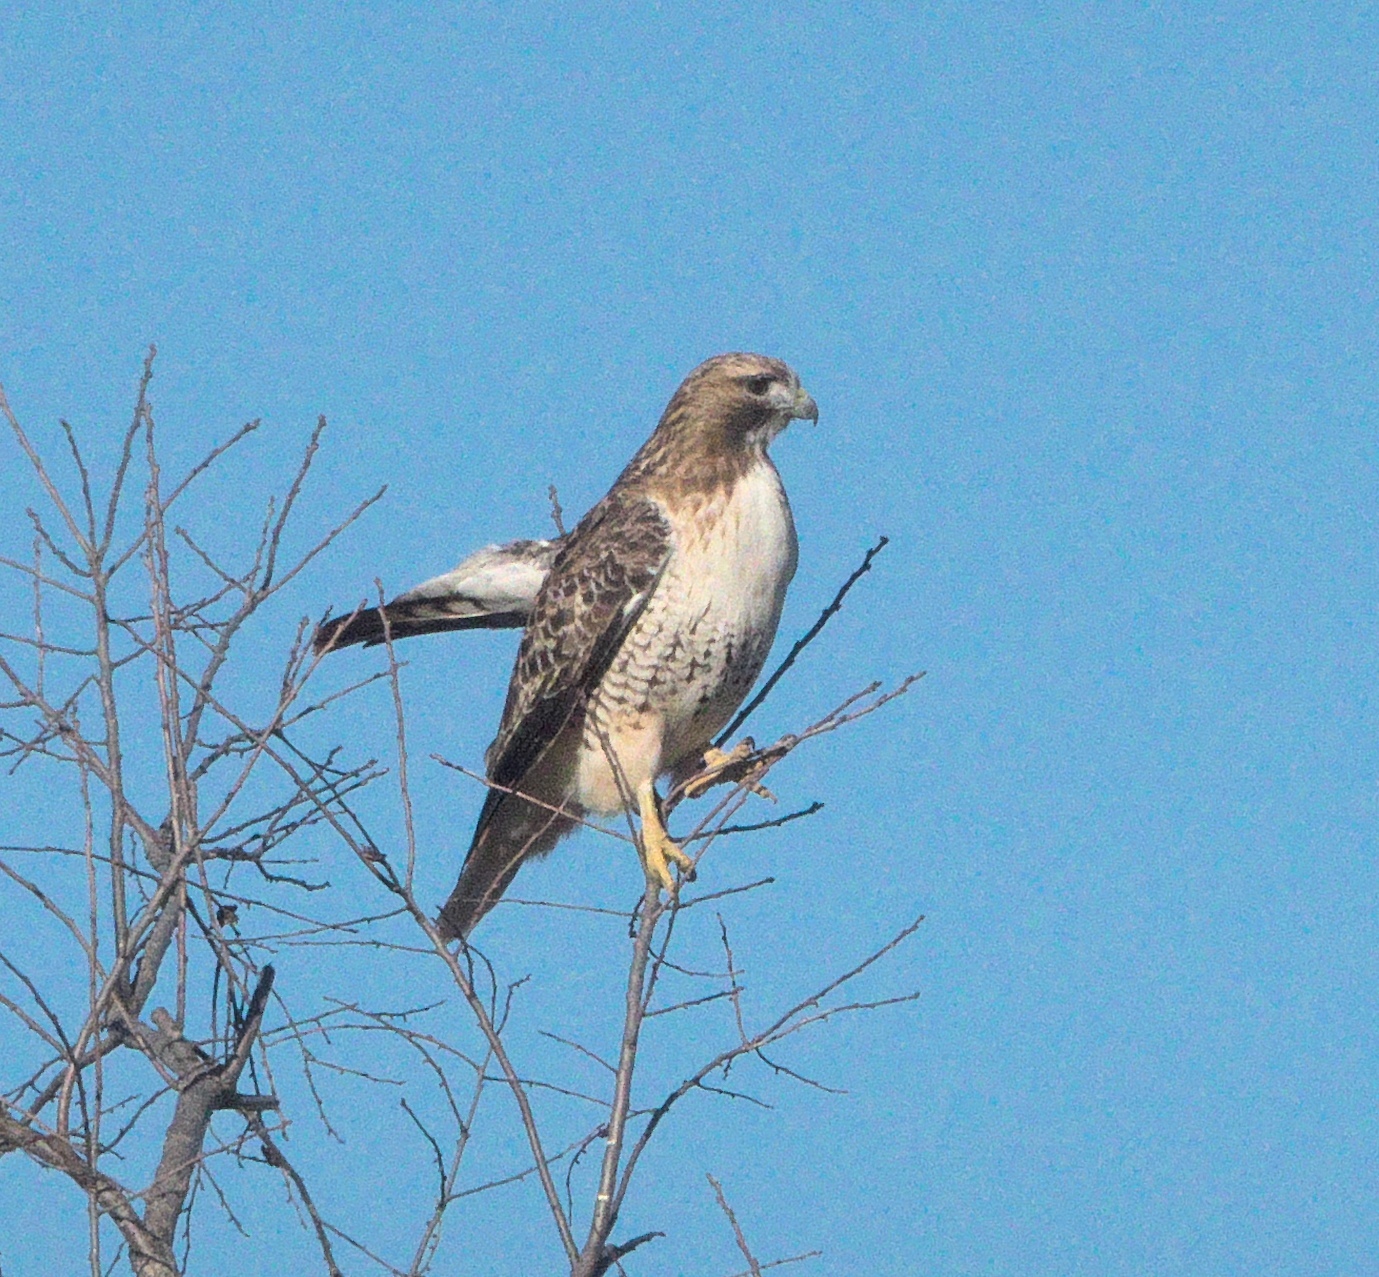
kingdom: Animalia
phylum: Chordata
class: Aves
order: Accipitriformes
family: Accipitridae
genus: Buteo
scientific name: Buteo jamaicensis
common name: Red-tailed hawk
